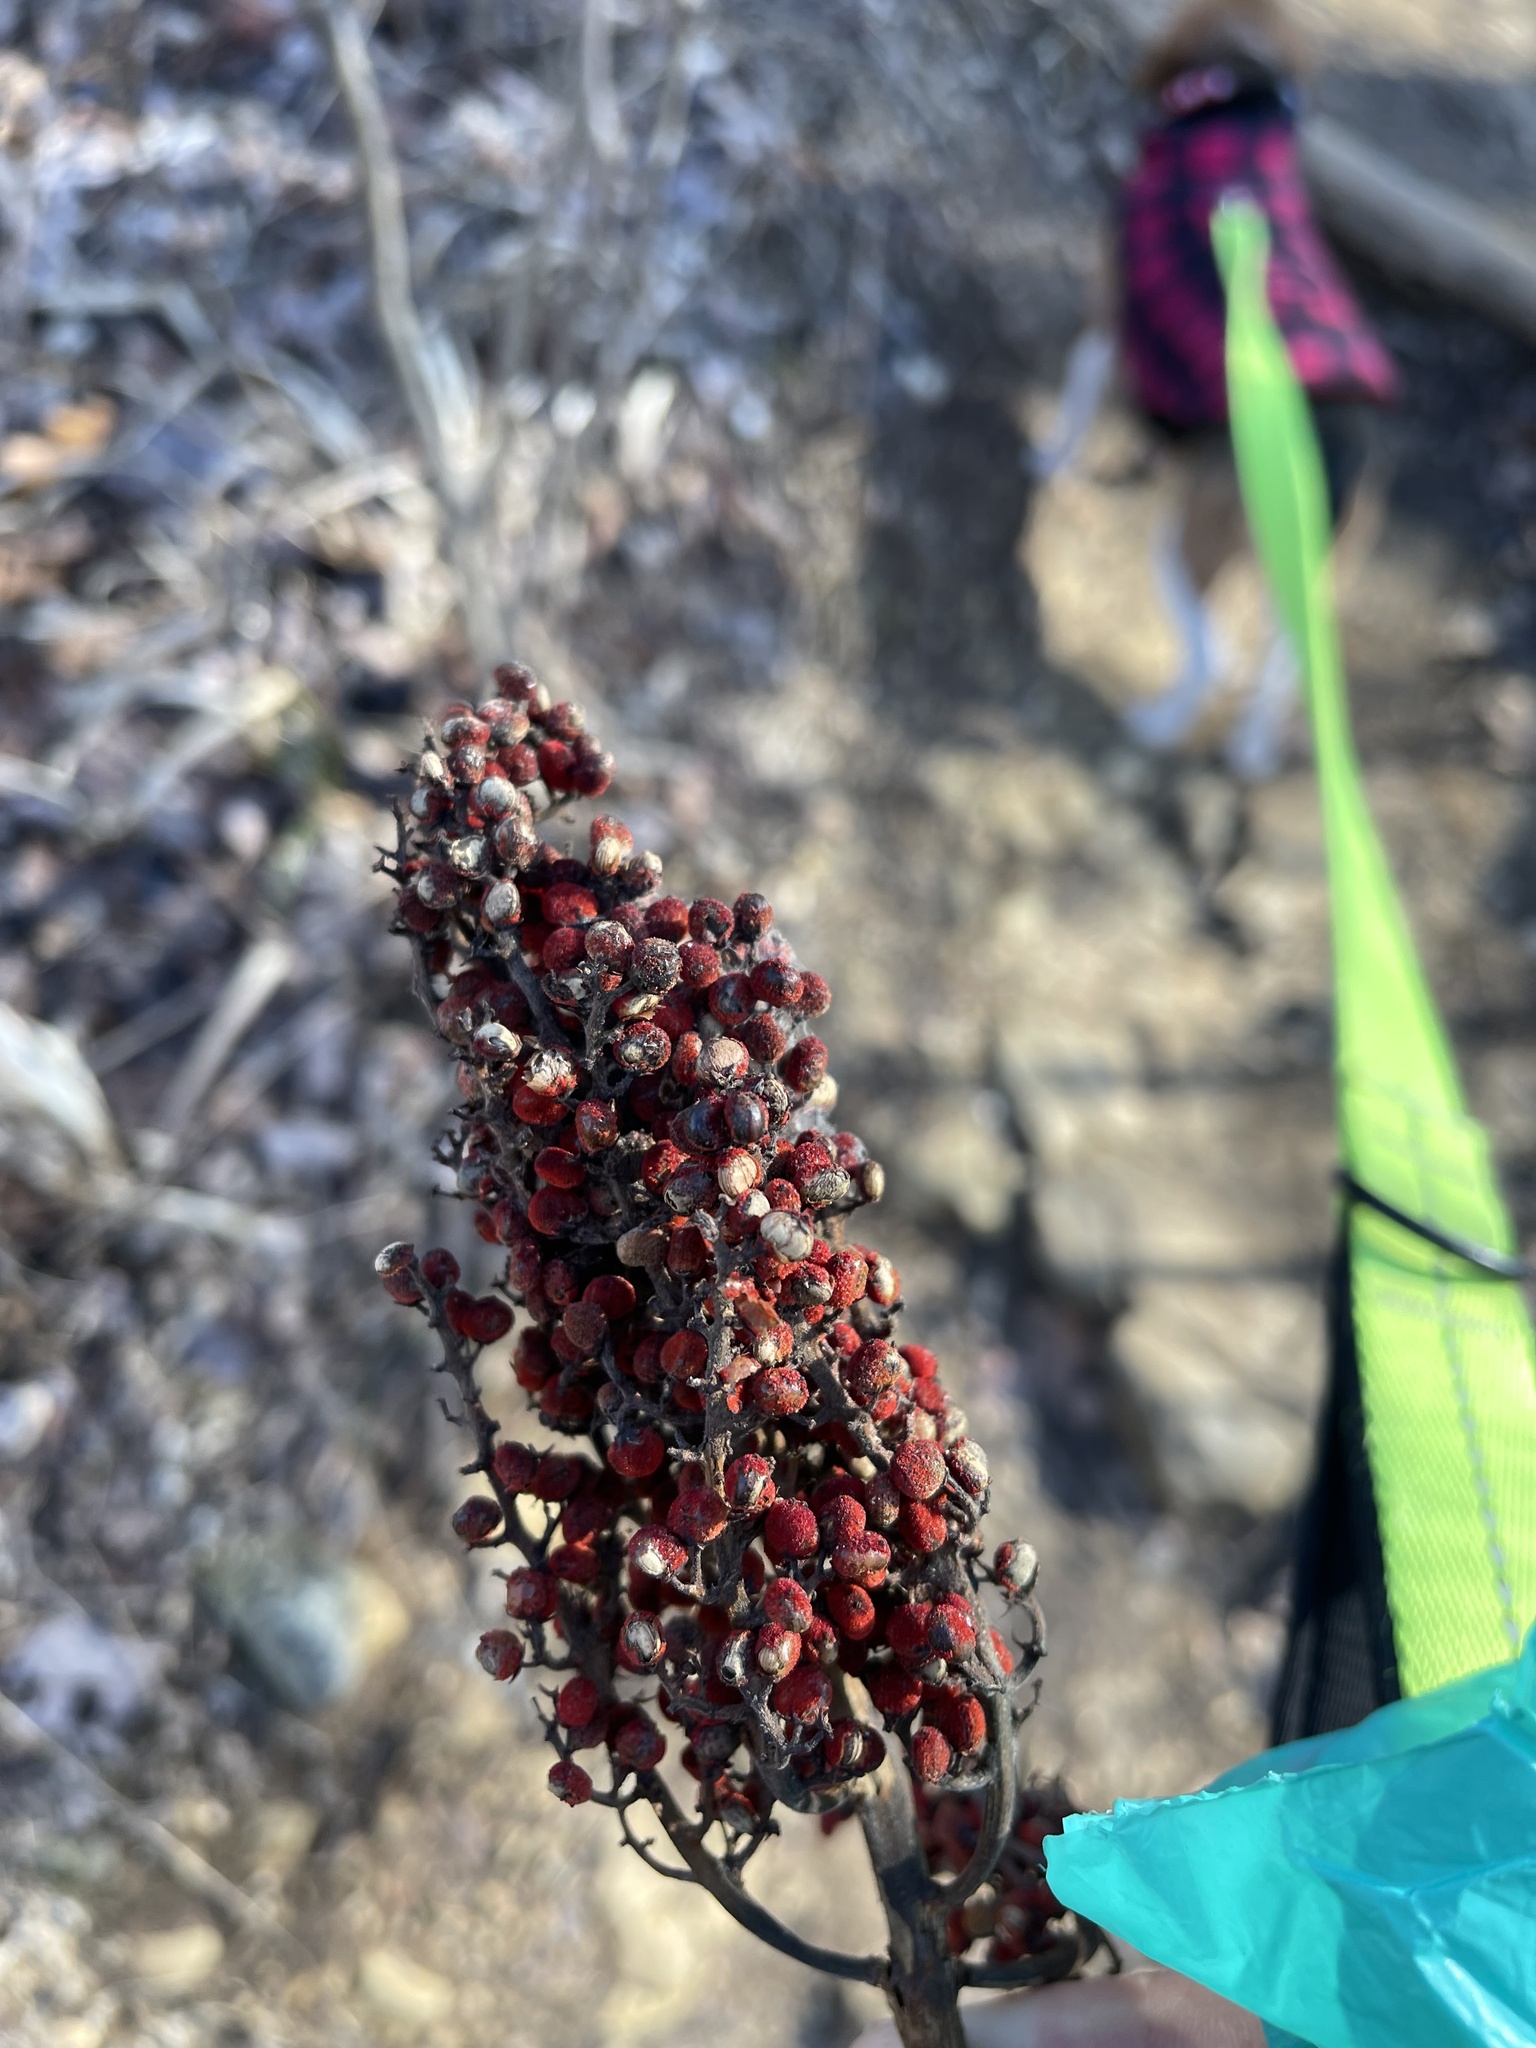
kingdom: Plantae
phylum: Tracheophyta
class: Magnoliopsida
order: Sapindales
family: Anacardiaceae
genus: Rhus
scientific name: Rhus glabra
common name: Scarlet sumac
